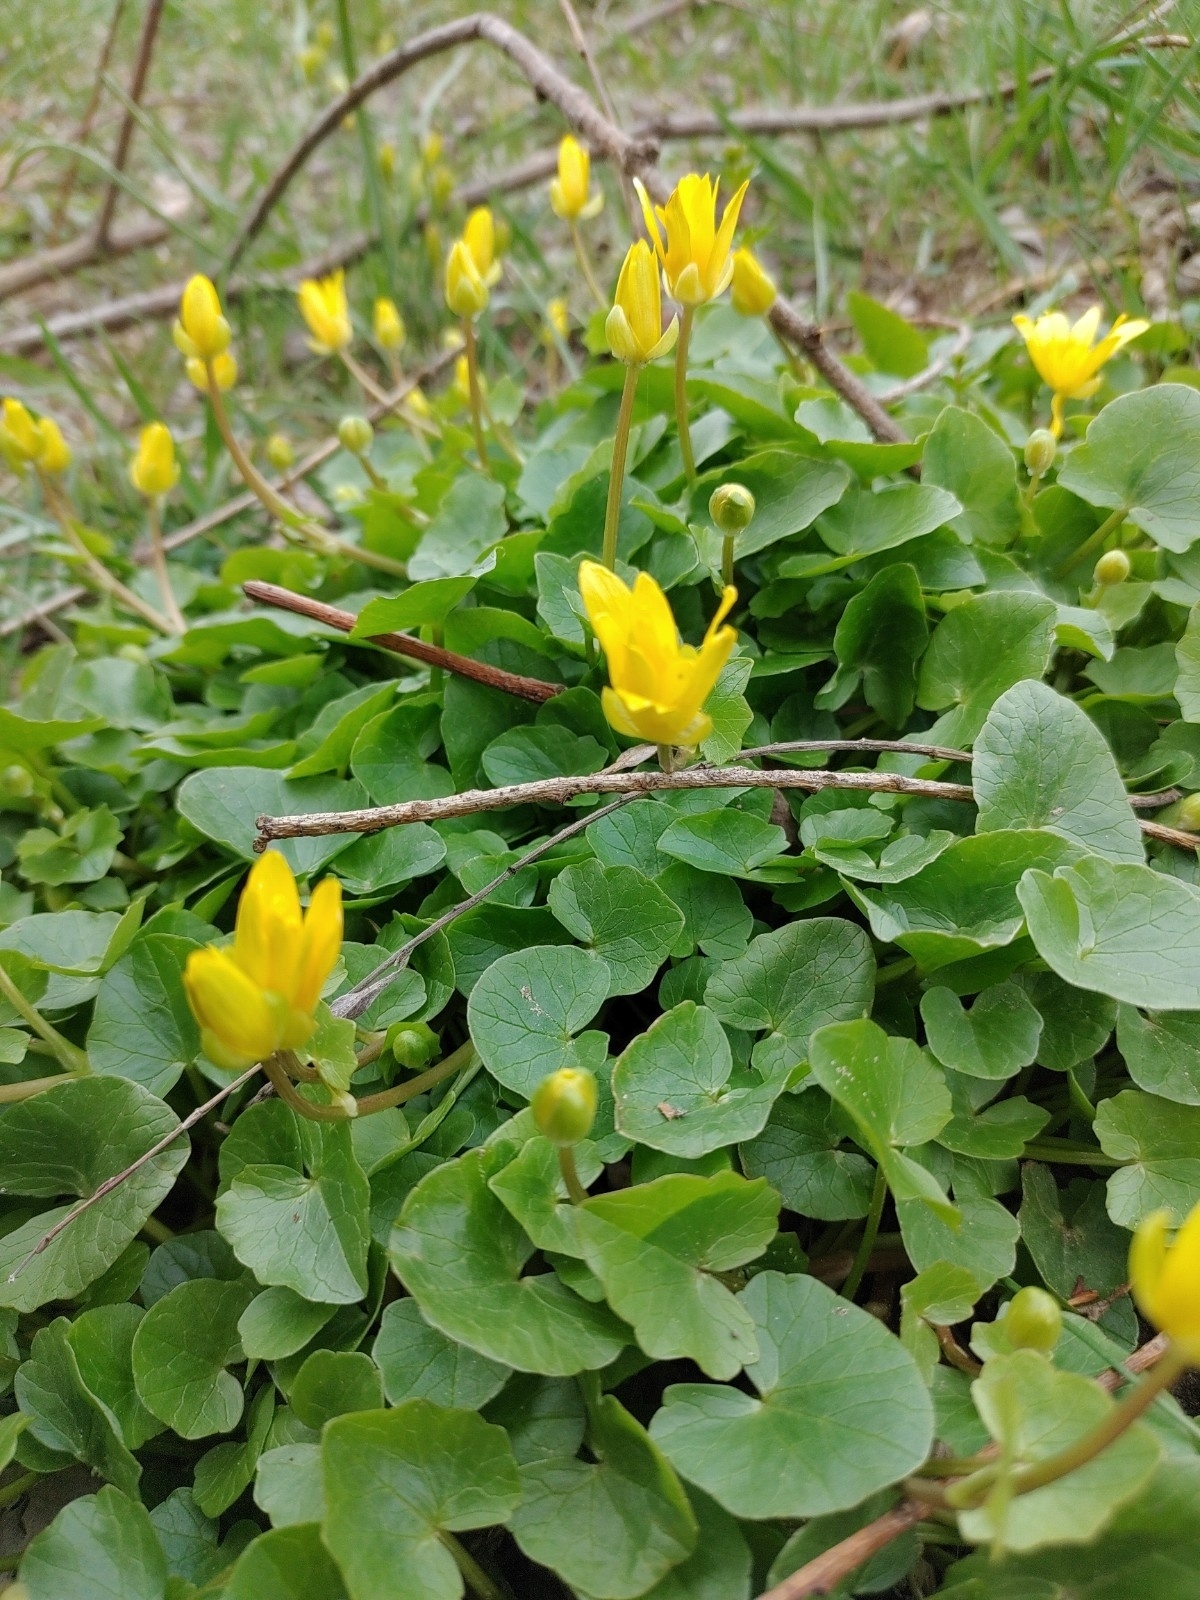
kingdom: Plantae
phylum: Tracheophyta
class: Magnoliopsida
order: Ranunculales
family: Ranunculaceae
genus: Ficaria
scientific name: Ficaria verna
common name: Lesser celandine
